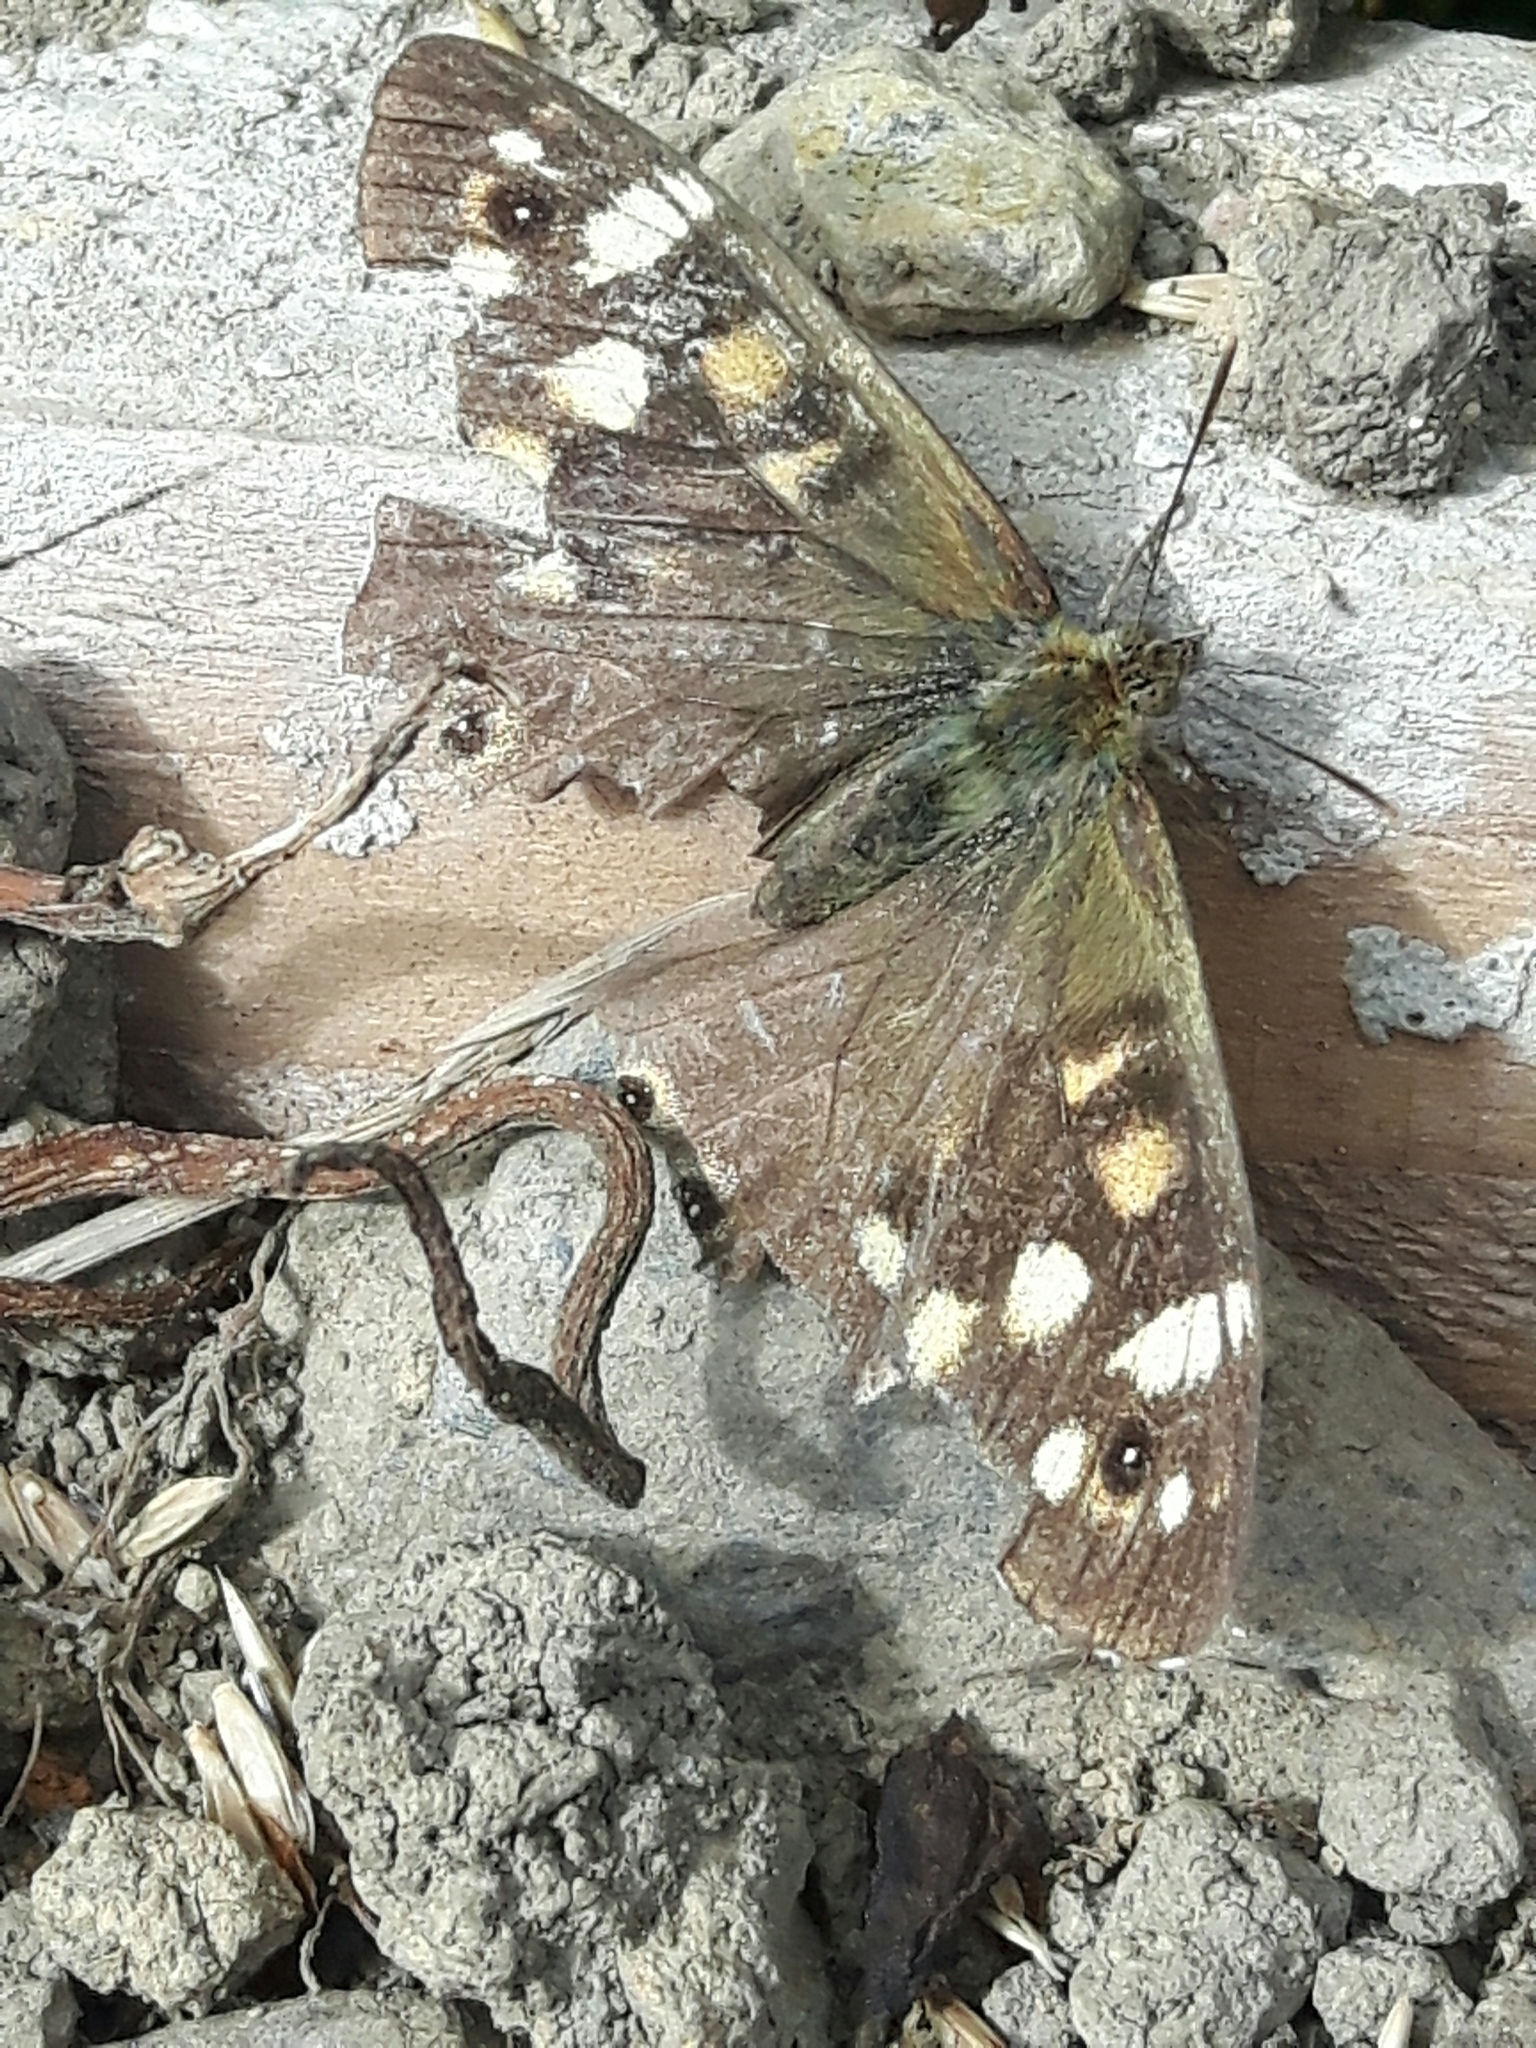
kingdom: Animalia
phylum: Arthropoda
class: Insecta
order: Lepidoptera
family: Nymphalidae
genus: Pararge
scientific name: Pararge aegeria
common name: Speckled wood
